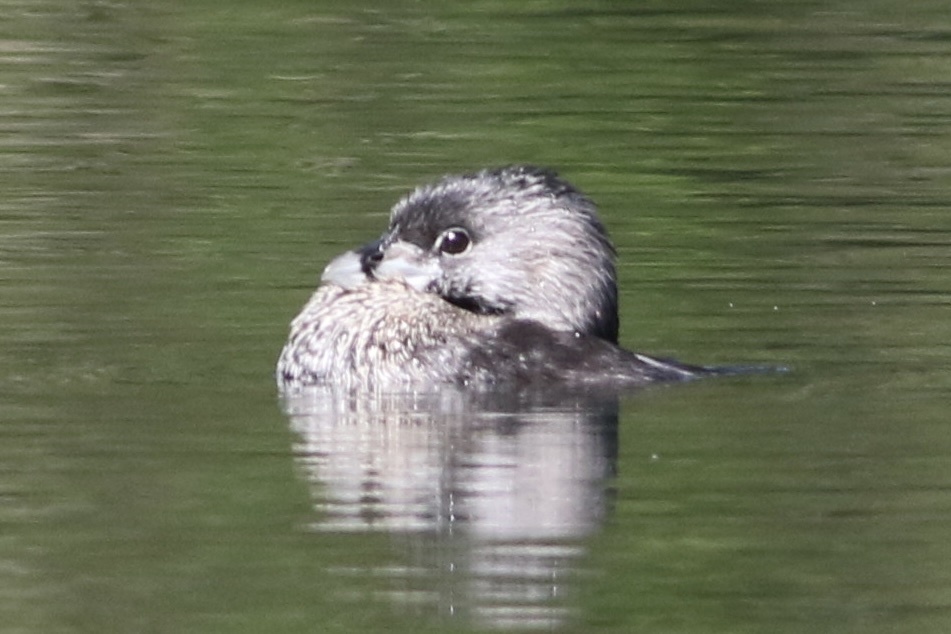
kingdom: Animalia
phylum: Chordata
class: Aves
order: Podicipediformes
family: Podicipedidae
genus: Podilymbus
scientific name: Podilymbus podiceps
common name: Pied-billed grebe
